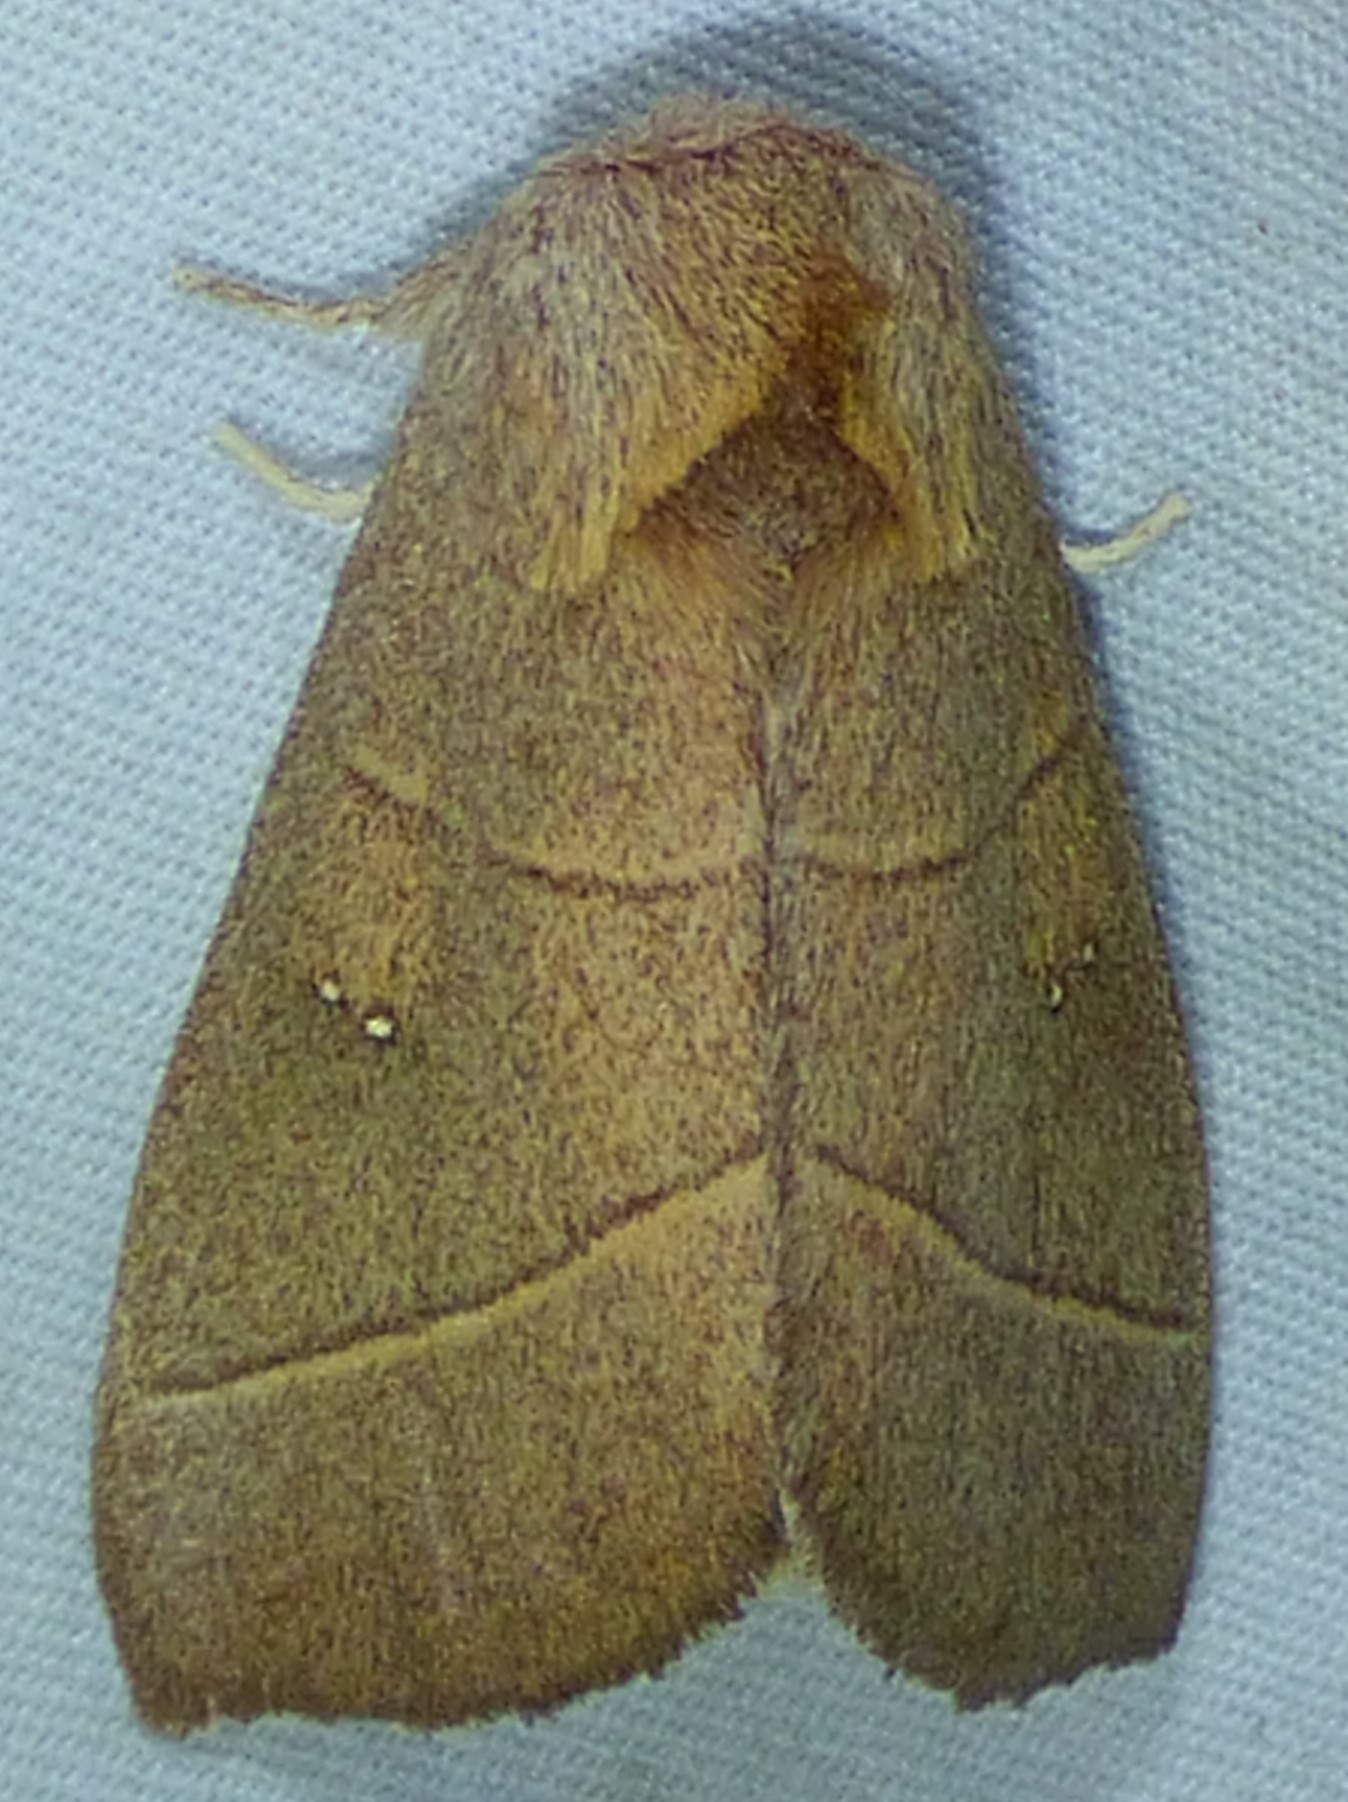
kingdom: Animalia
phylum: Arthropoda
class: Insecta
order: Lepidoptera
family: Notodontidae
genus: Nadata
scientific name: Nadata gibbosa
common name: White-dotted prominent
